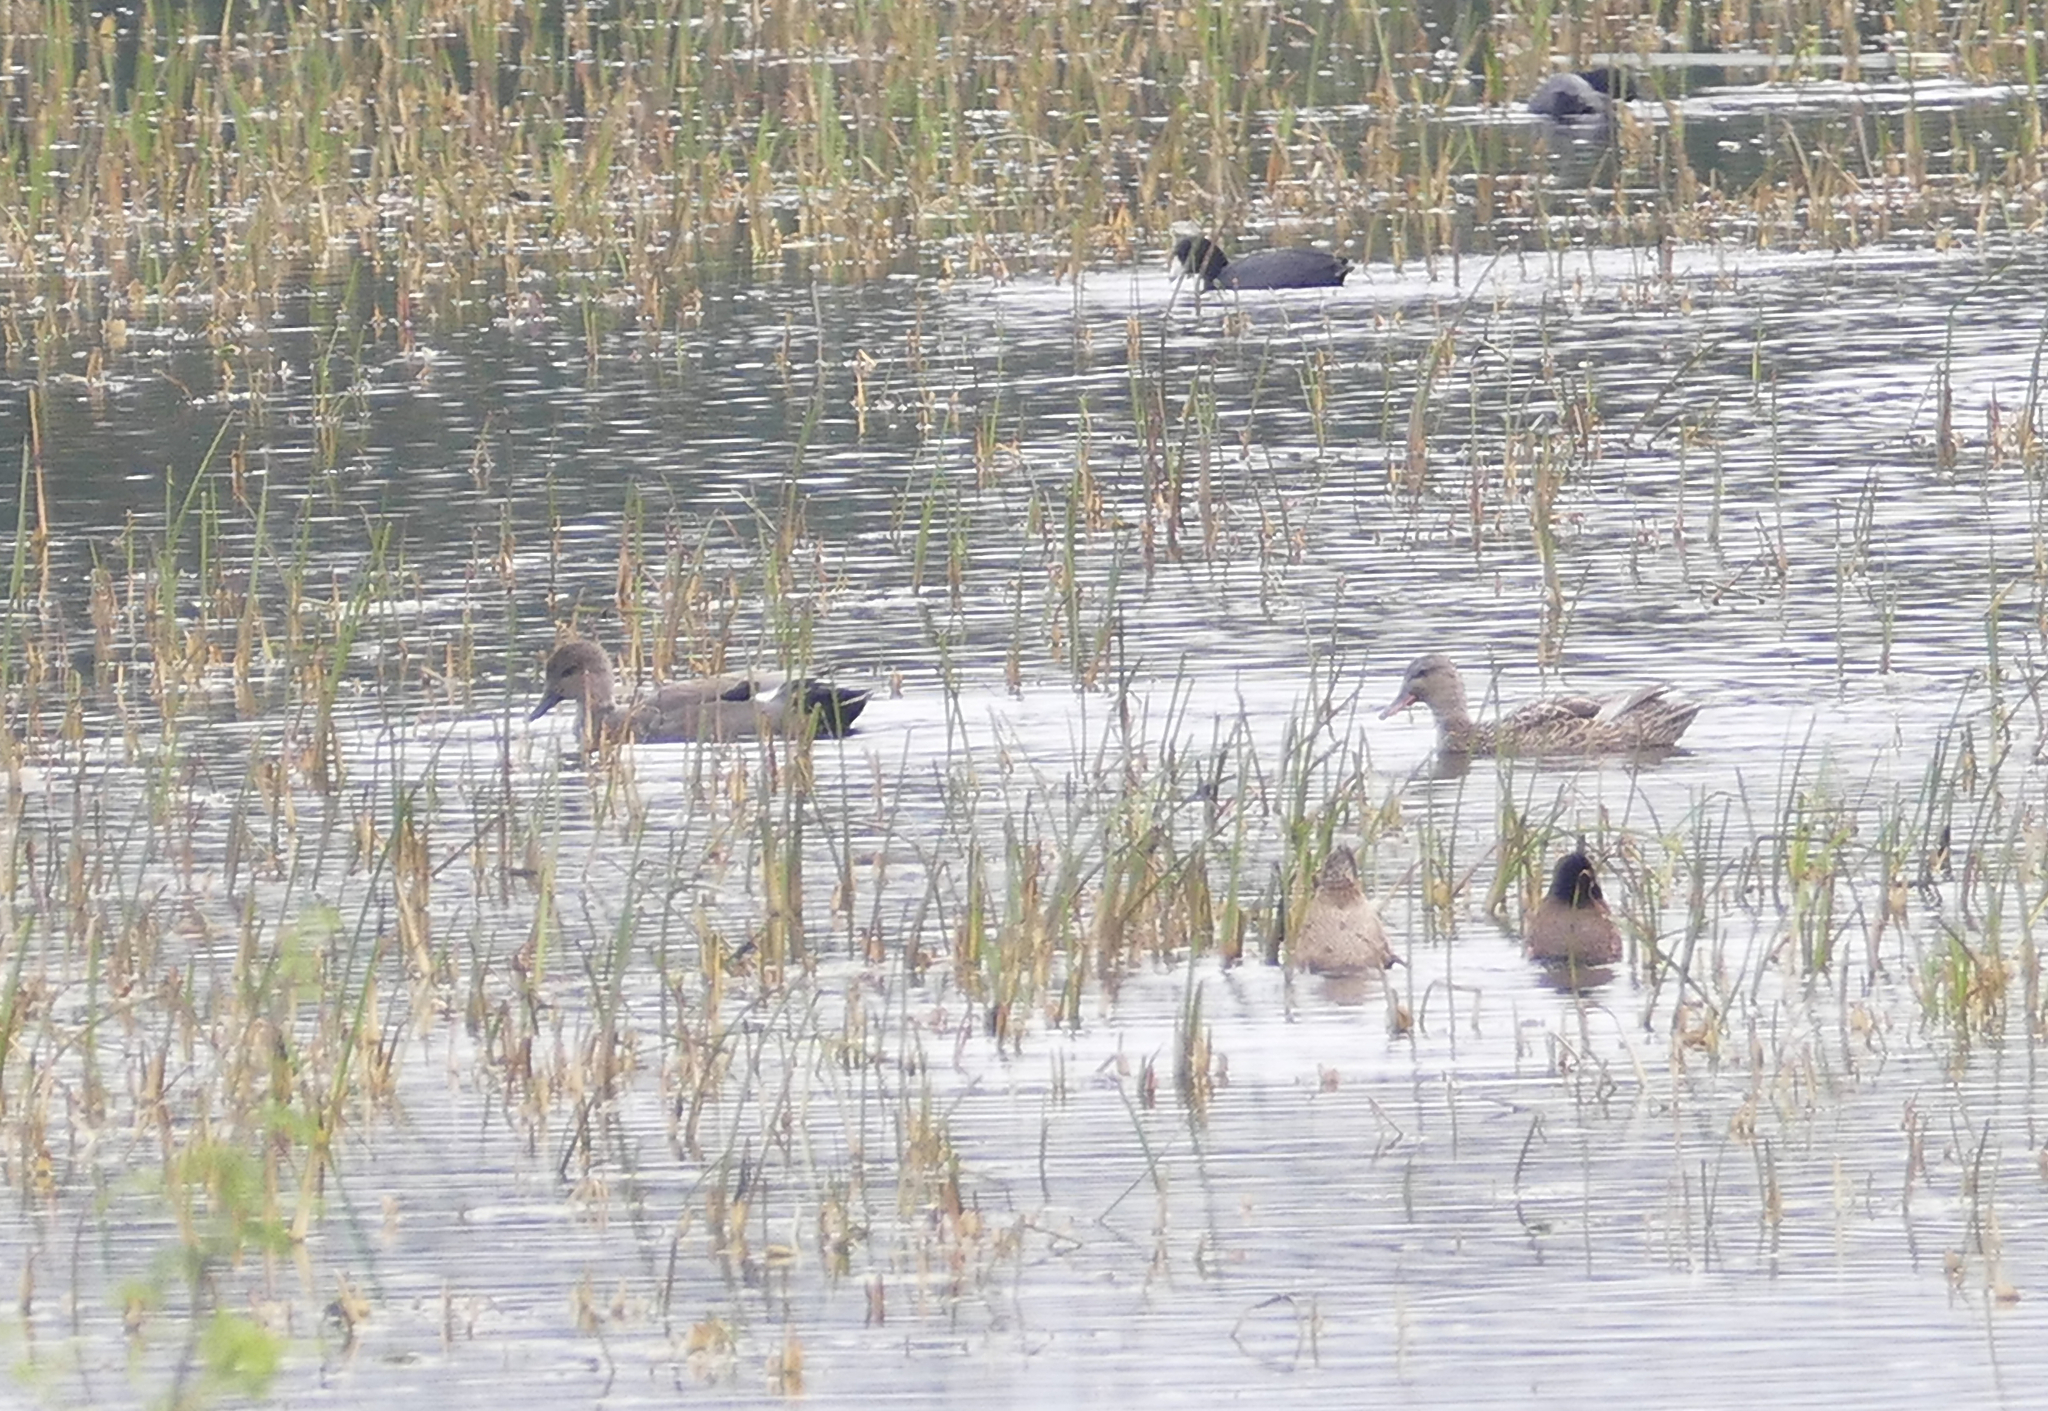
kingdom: Animalia
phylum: Chordata
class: Aves
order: Gruiformes
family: Rallidae
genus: Fulica
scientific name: Fulica americana
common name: American coot
